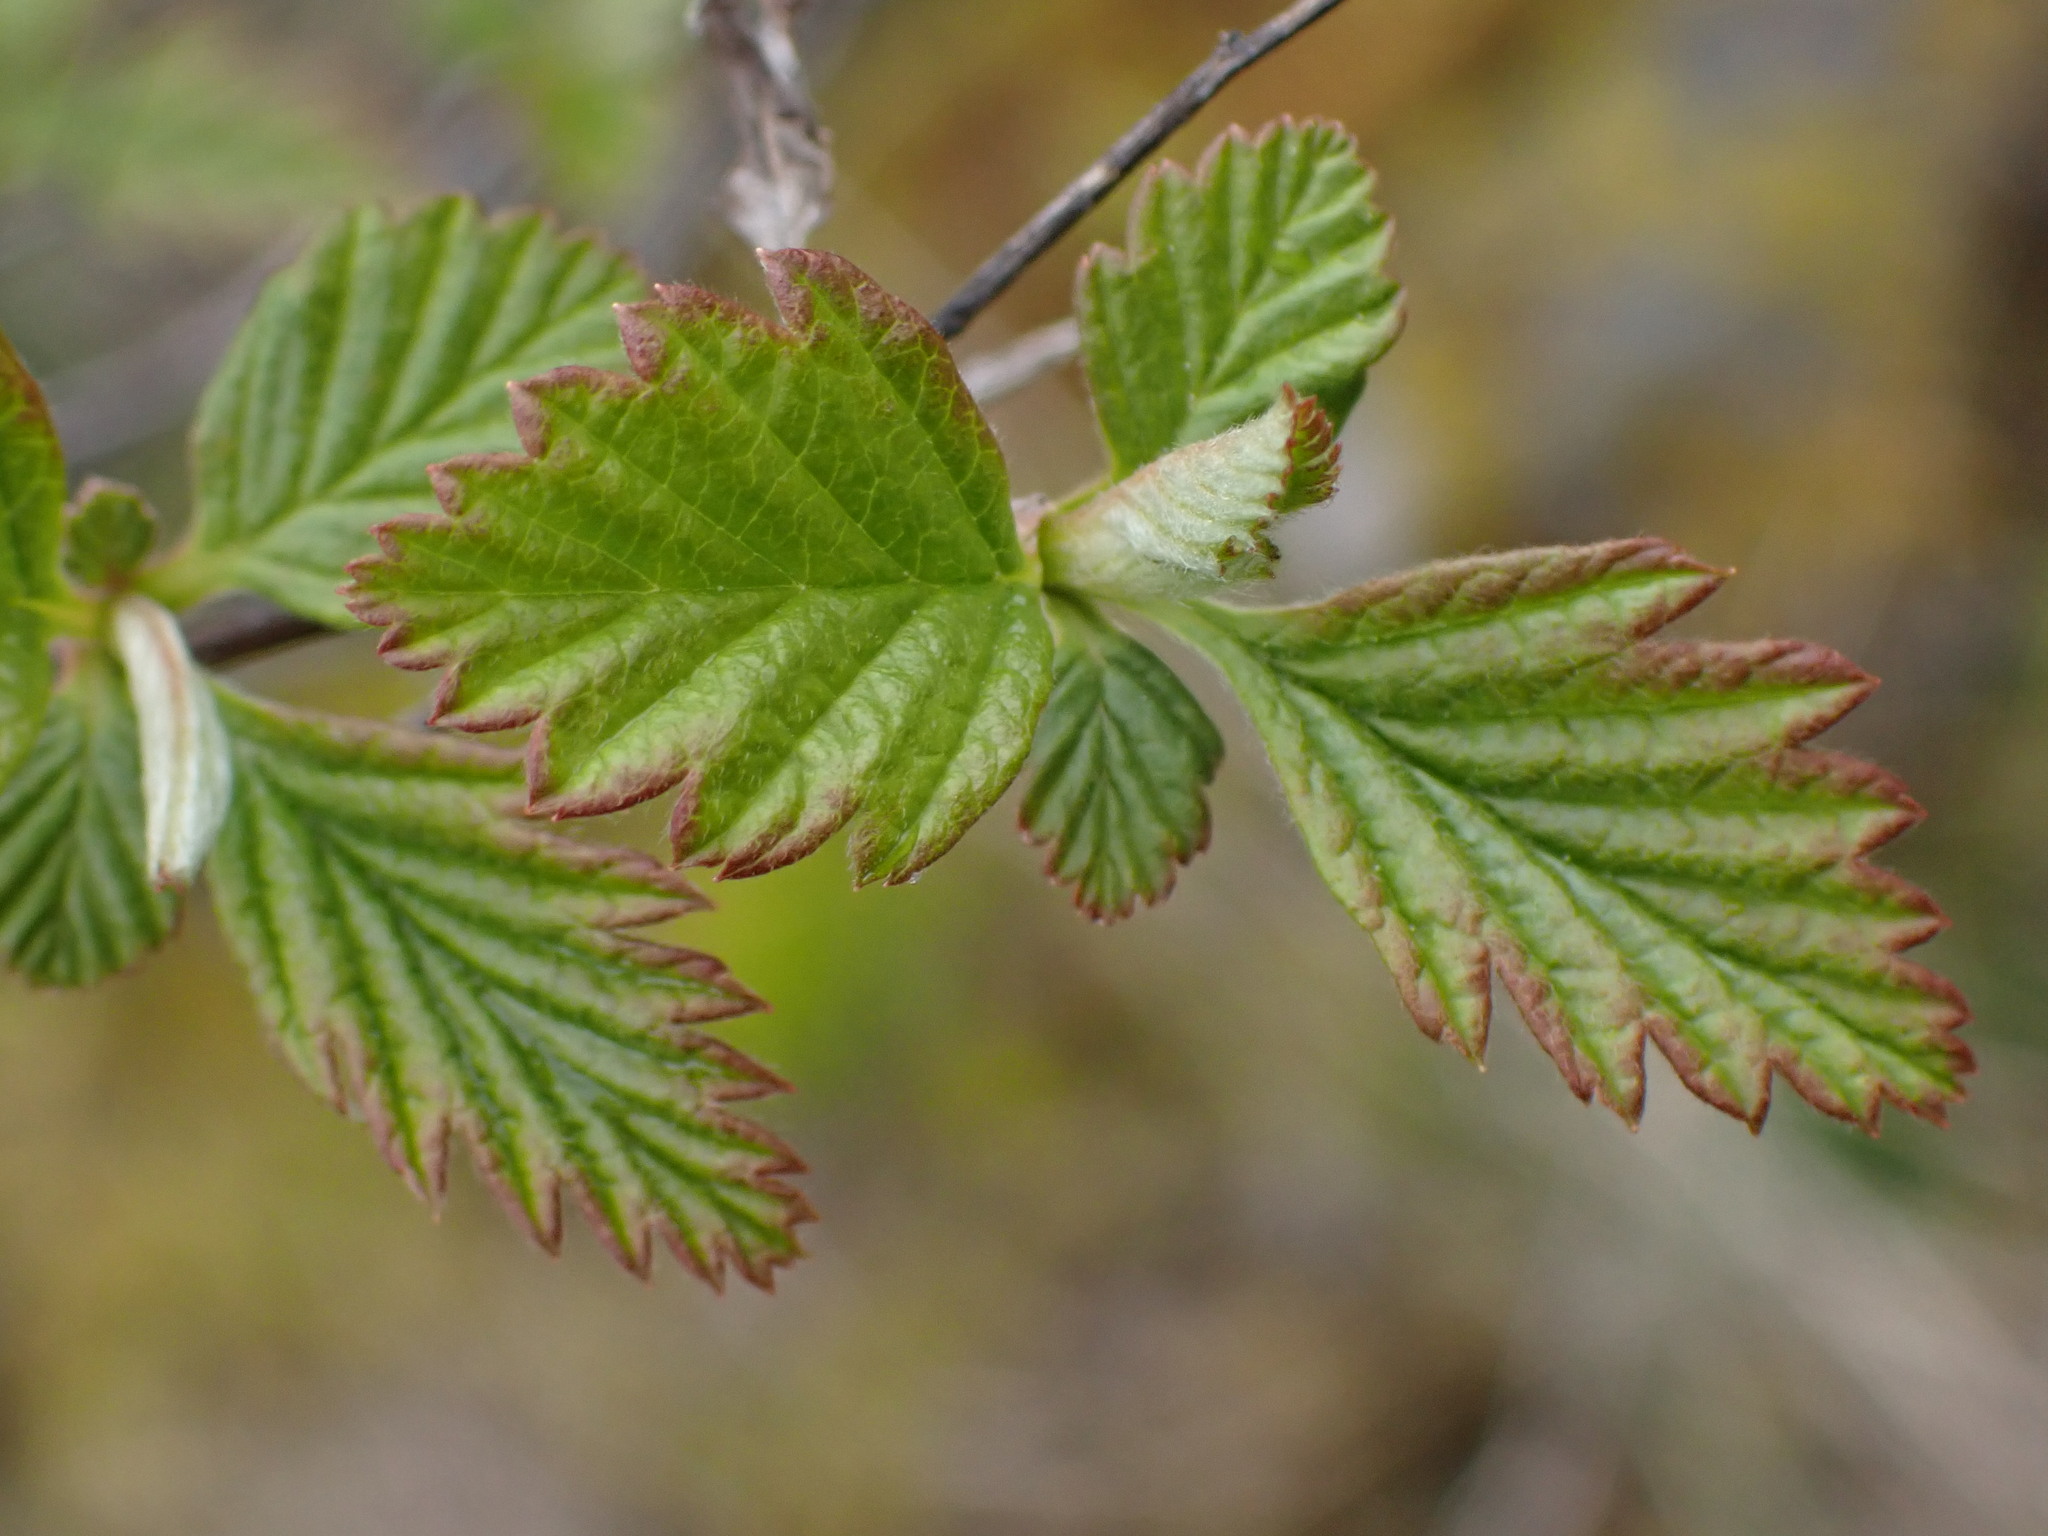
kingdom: Plantae
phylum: Tracheophyta
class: Magnoliopsida
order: Rosales
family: Rosaceae
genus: Holodiscus
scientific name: Holodiscus discolor
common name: Oceanspray
